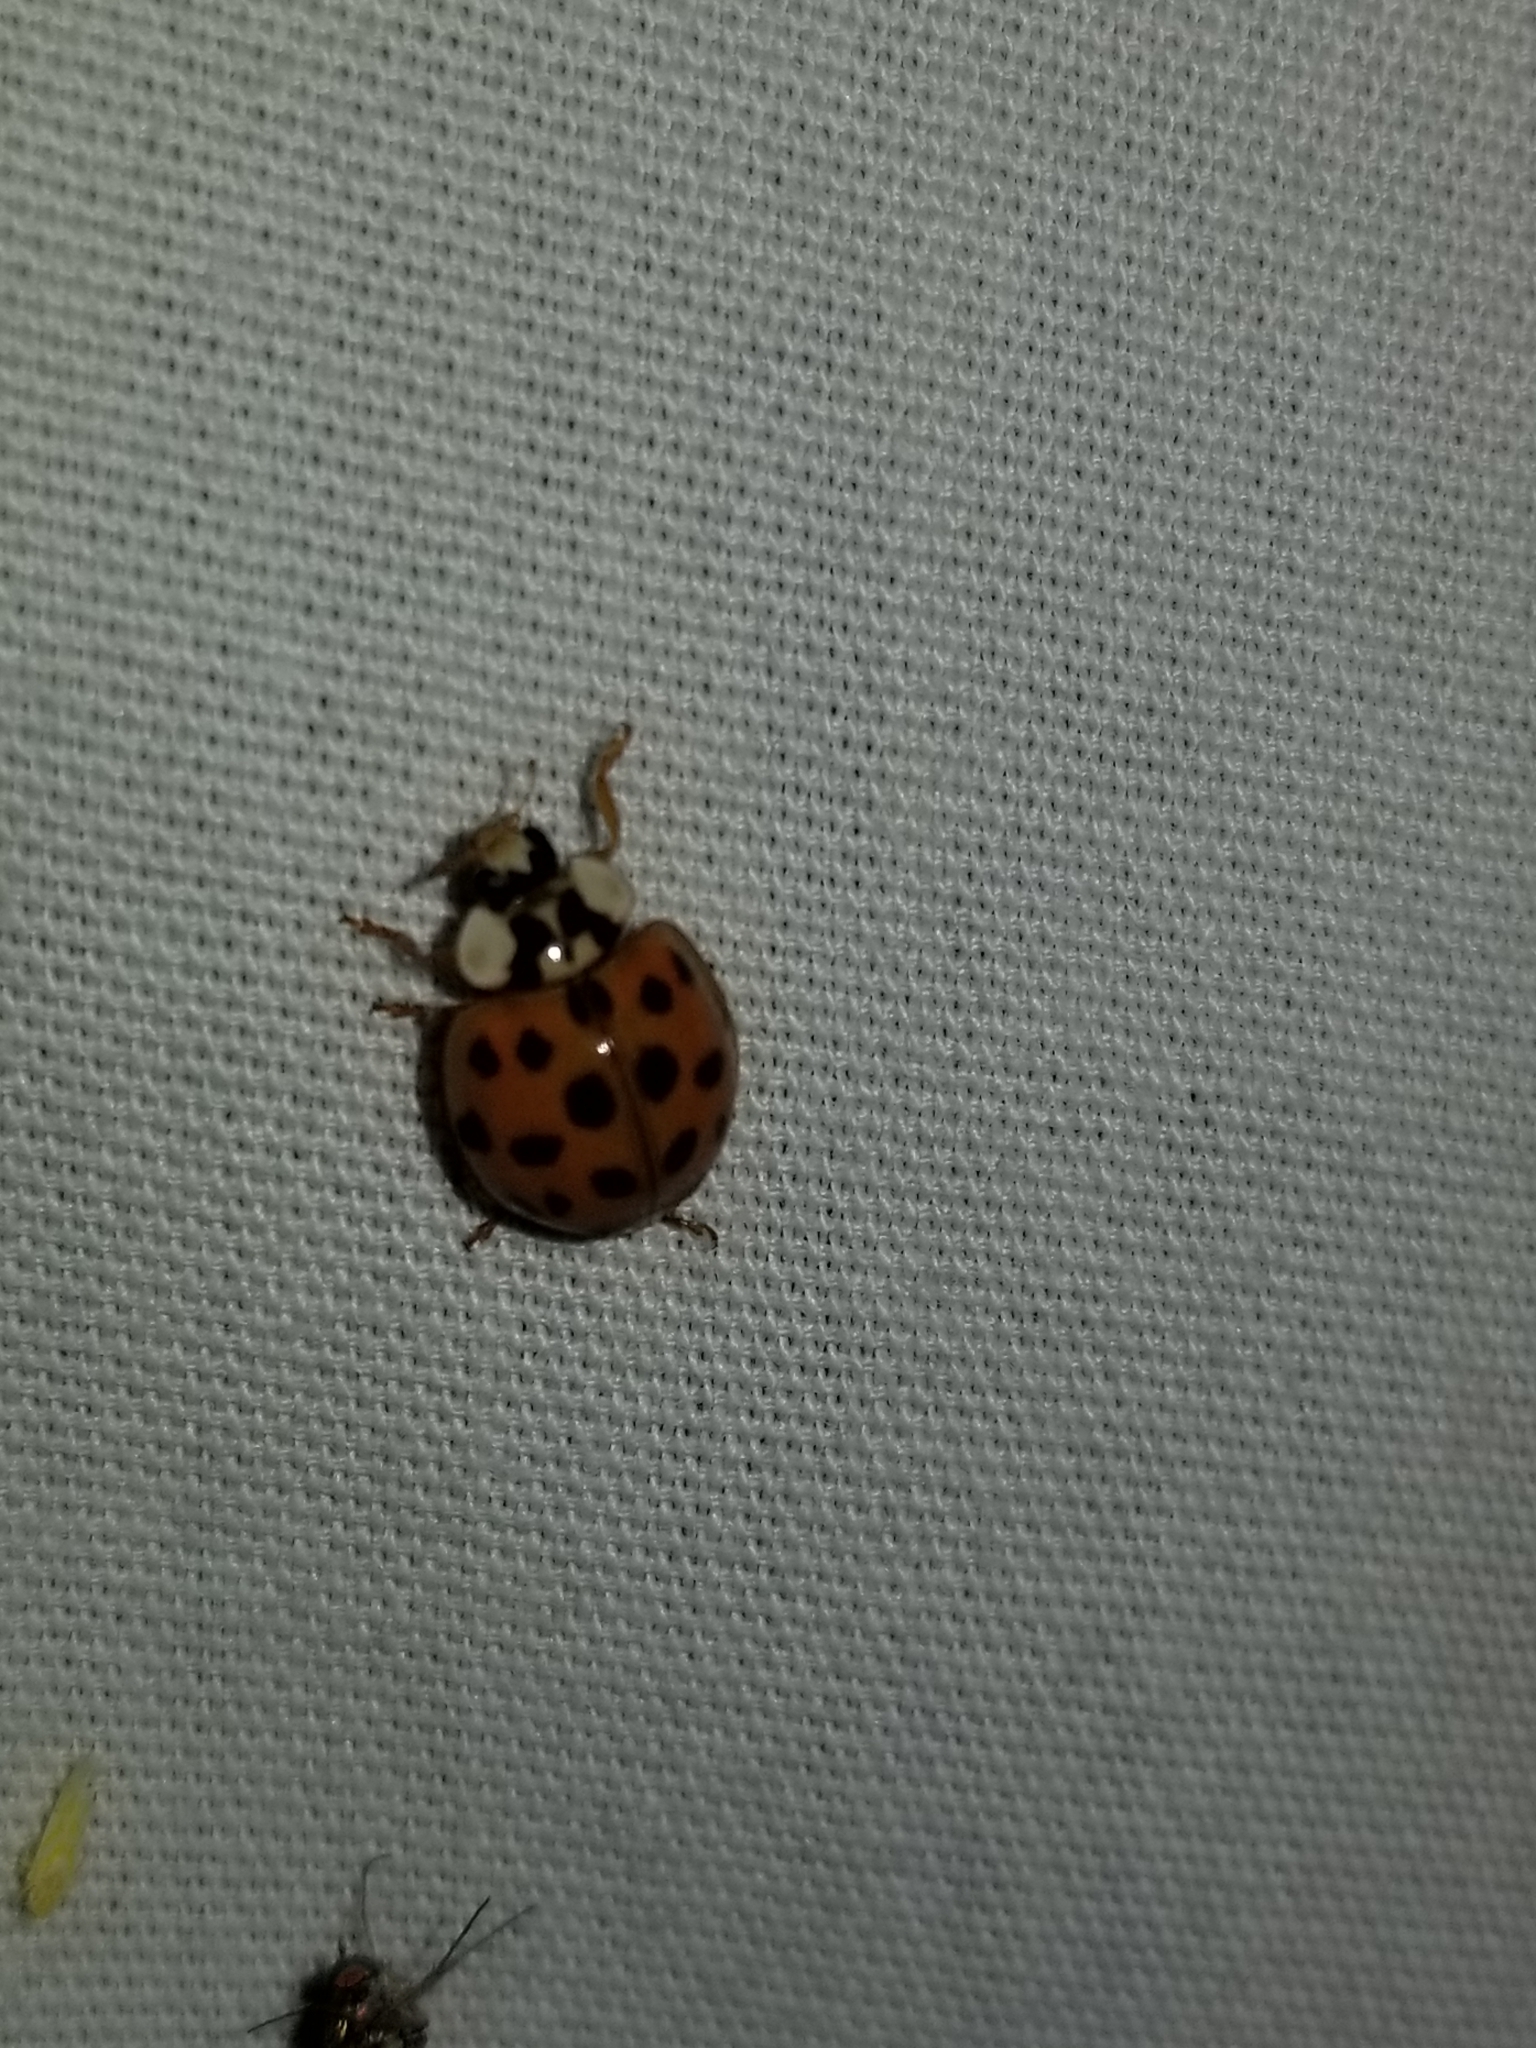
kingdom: Animalia
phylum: Arthropoda
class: Insecta
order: Coleoptera
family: Coccinellidae
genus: Harmonia
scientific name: Harmonia axyridis
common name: Harlequin ladybird
